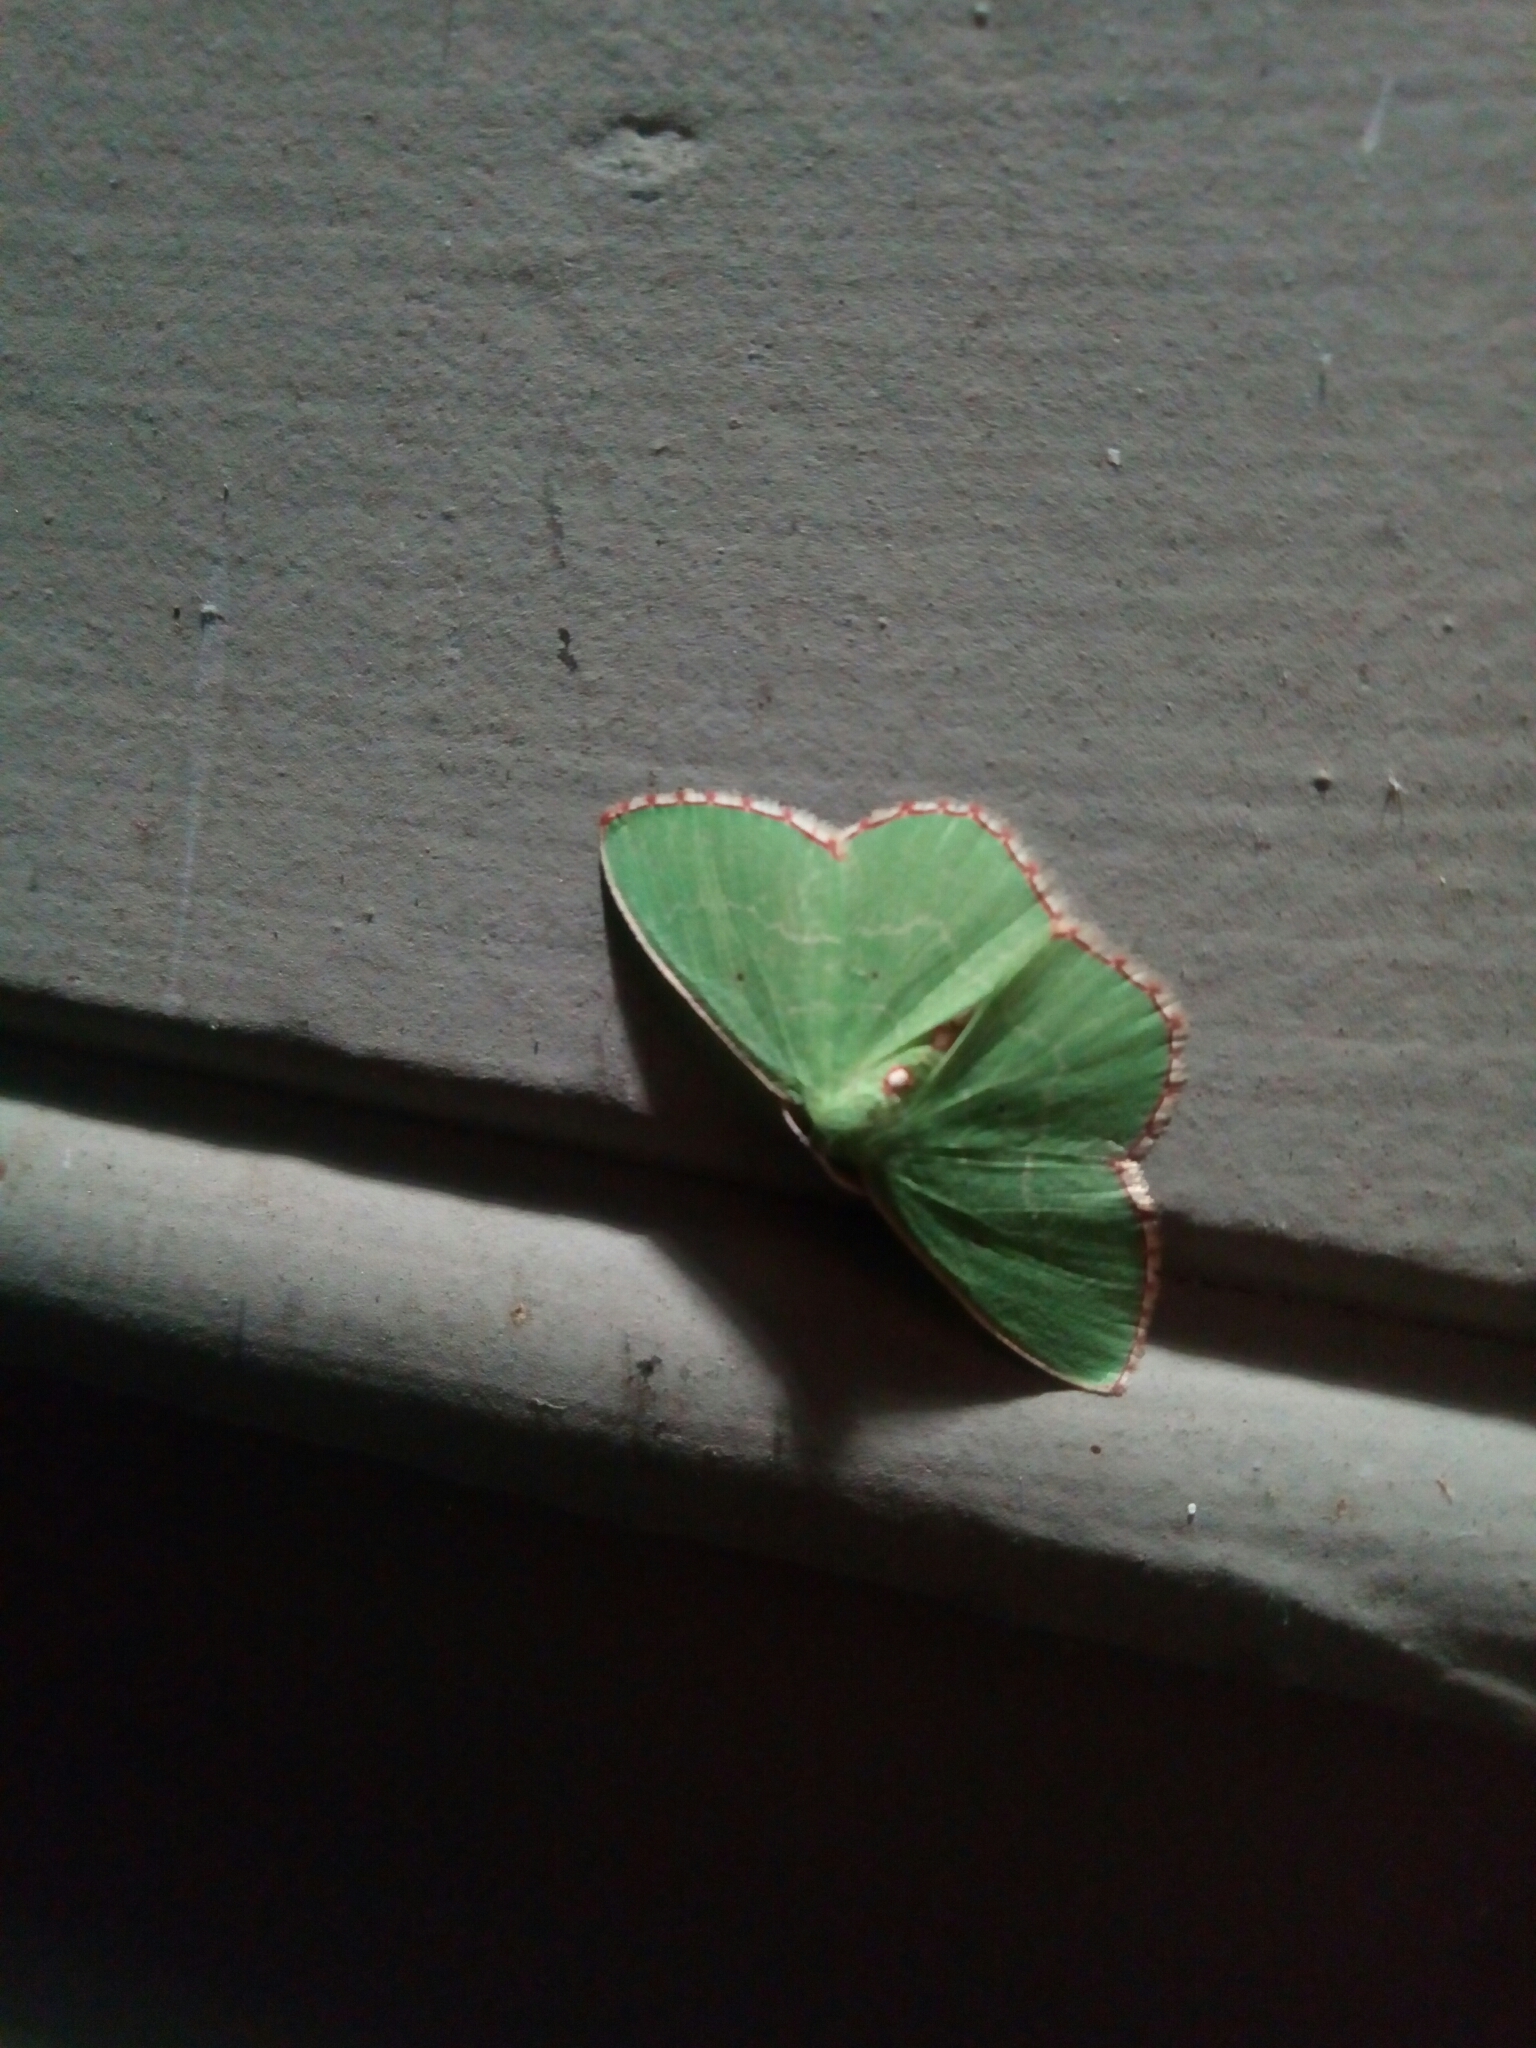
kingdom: Animalia
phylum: Arthropoda
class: Insecta
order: Lepidoptera
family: Geometridae
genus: Nemoria
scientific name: Nemoria bistriaria
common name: Red-fringed emerald
